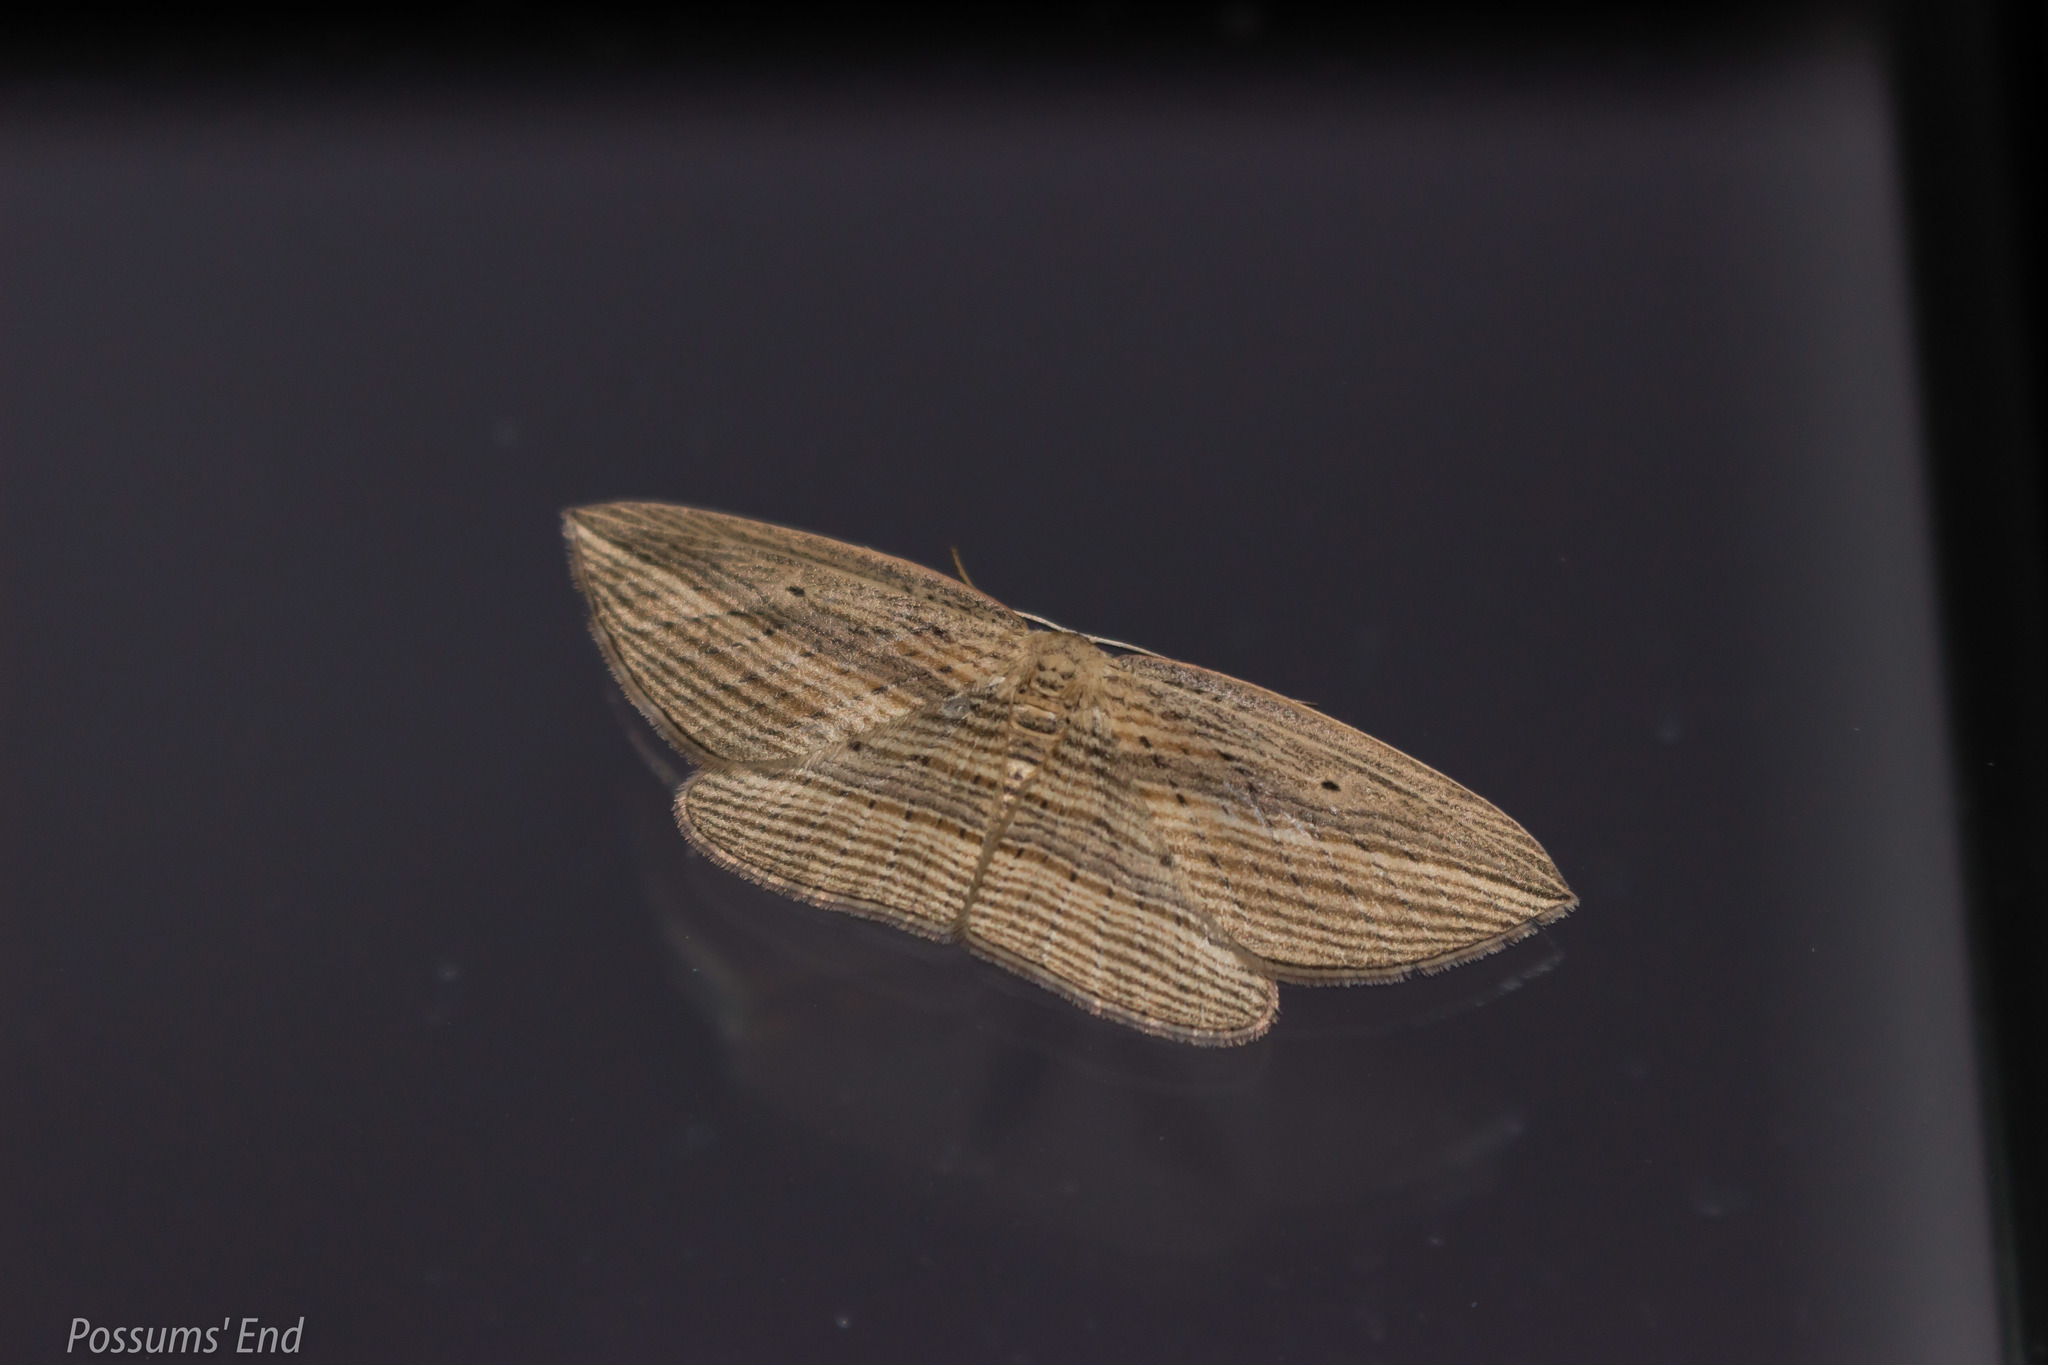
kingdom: Animalia
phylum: Arthropoda
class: Insecta
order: Lepidoptera
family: Geometridae
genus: Epiphryne
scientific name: Epiphryne verriculata
